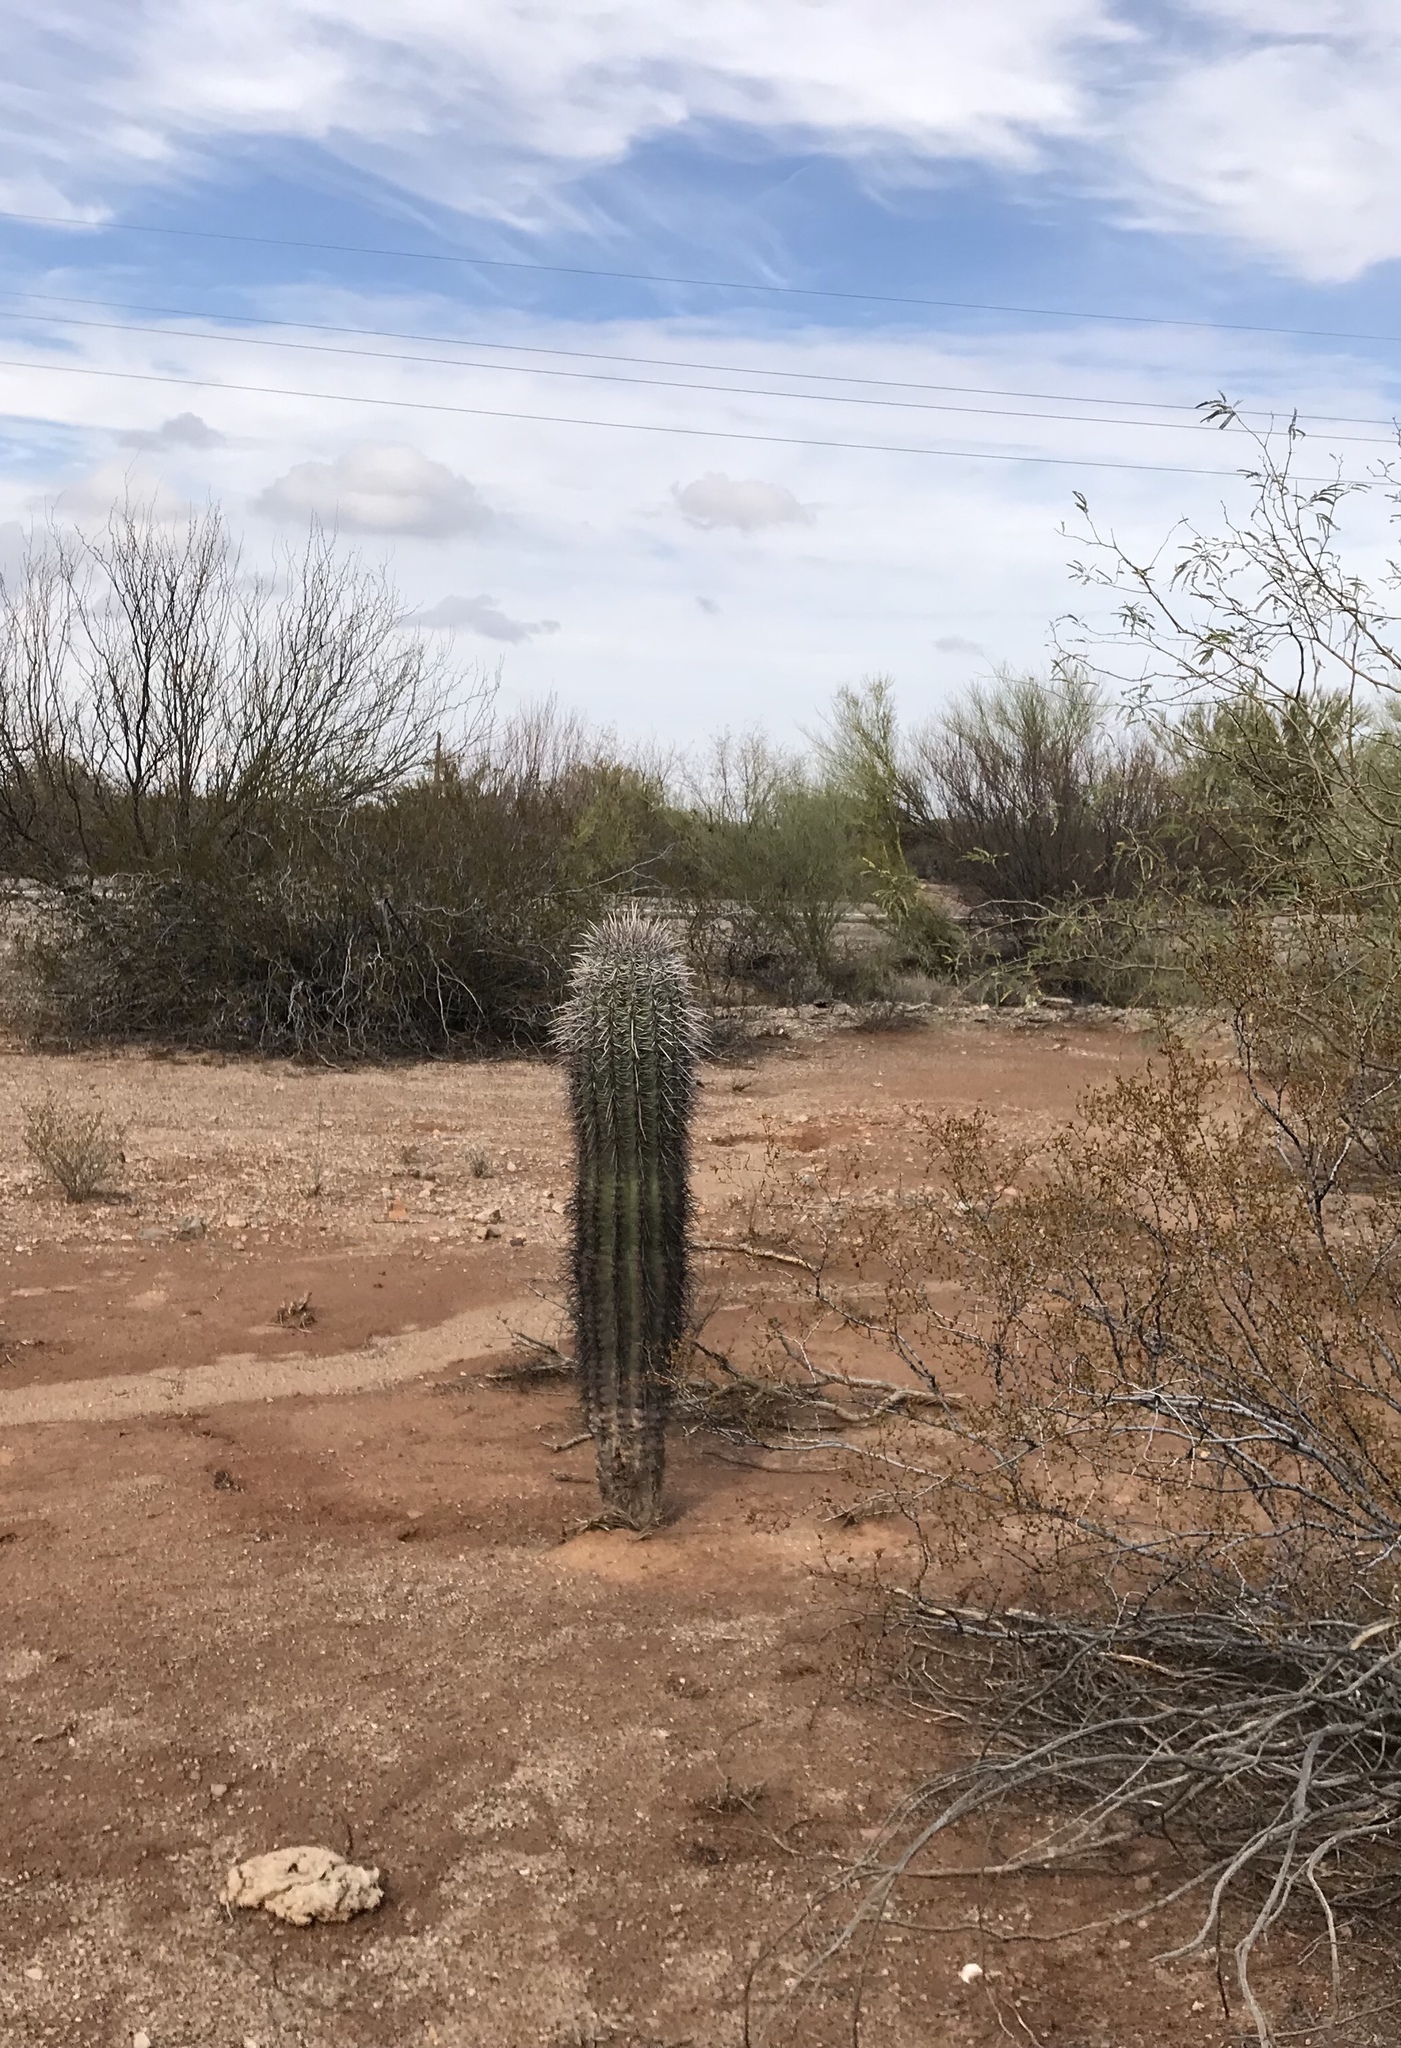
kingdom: Plantae
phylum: Tracheophyta
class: Magnoliopsida
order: Caryophyllales
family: Cactaceae
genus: Carnegiea
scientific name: Carnegiea gigantea
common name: Saguaro
